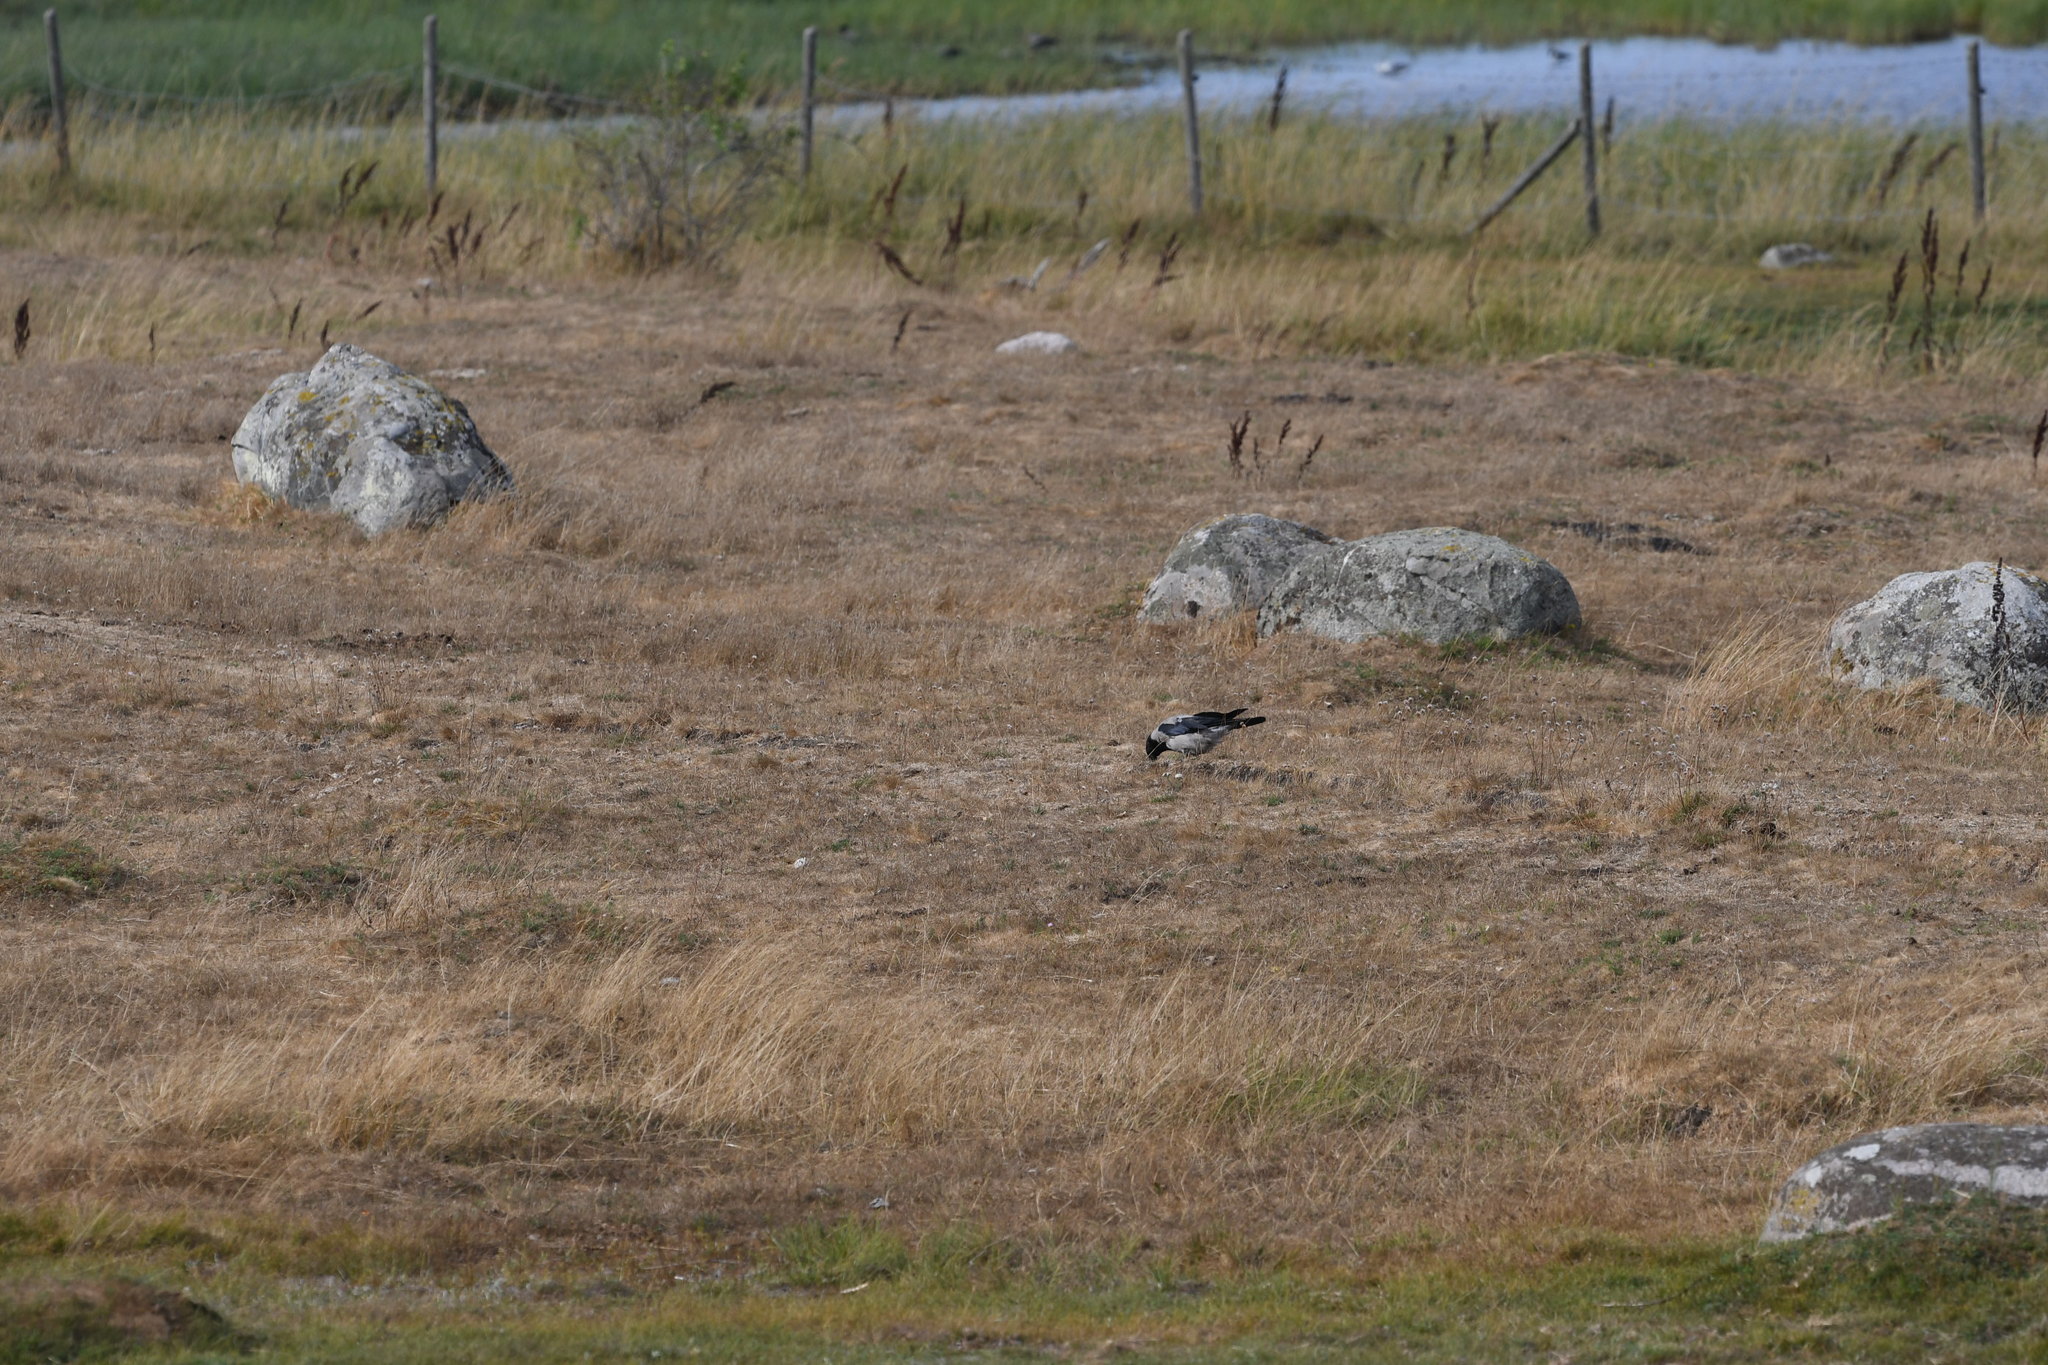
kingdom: Animalia
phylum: Chordata
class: Aves
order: Passeriformes
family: Corvidae
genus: Corvus
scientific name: Corvus cornix
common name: Hooded crow
